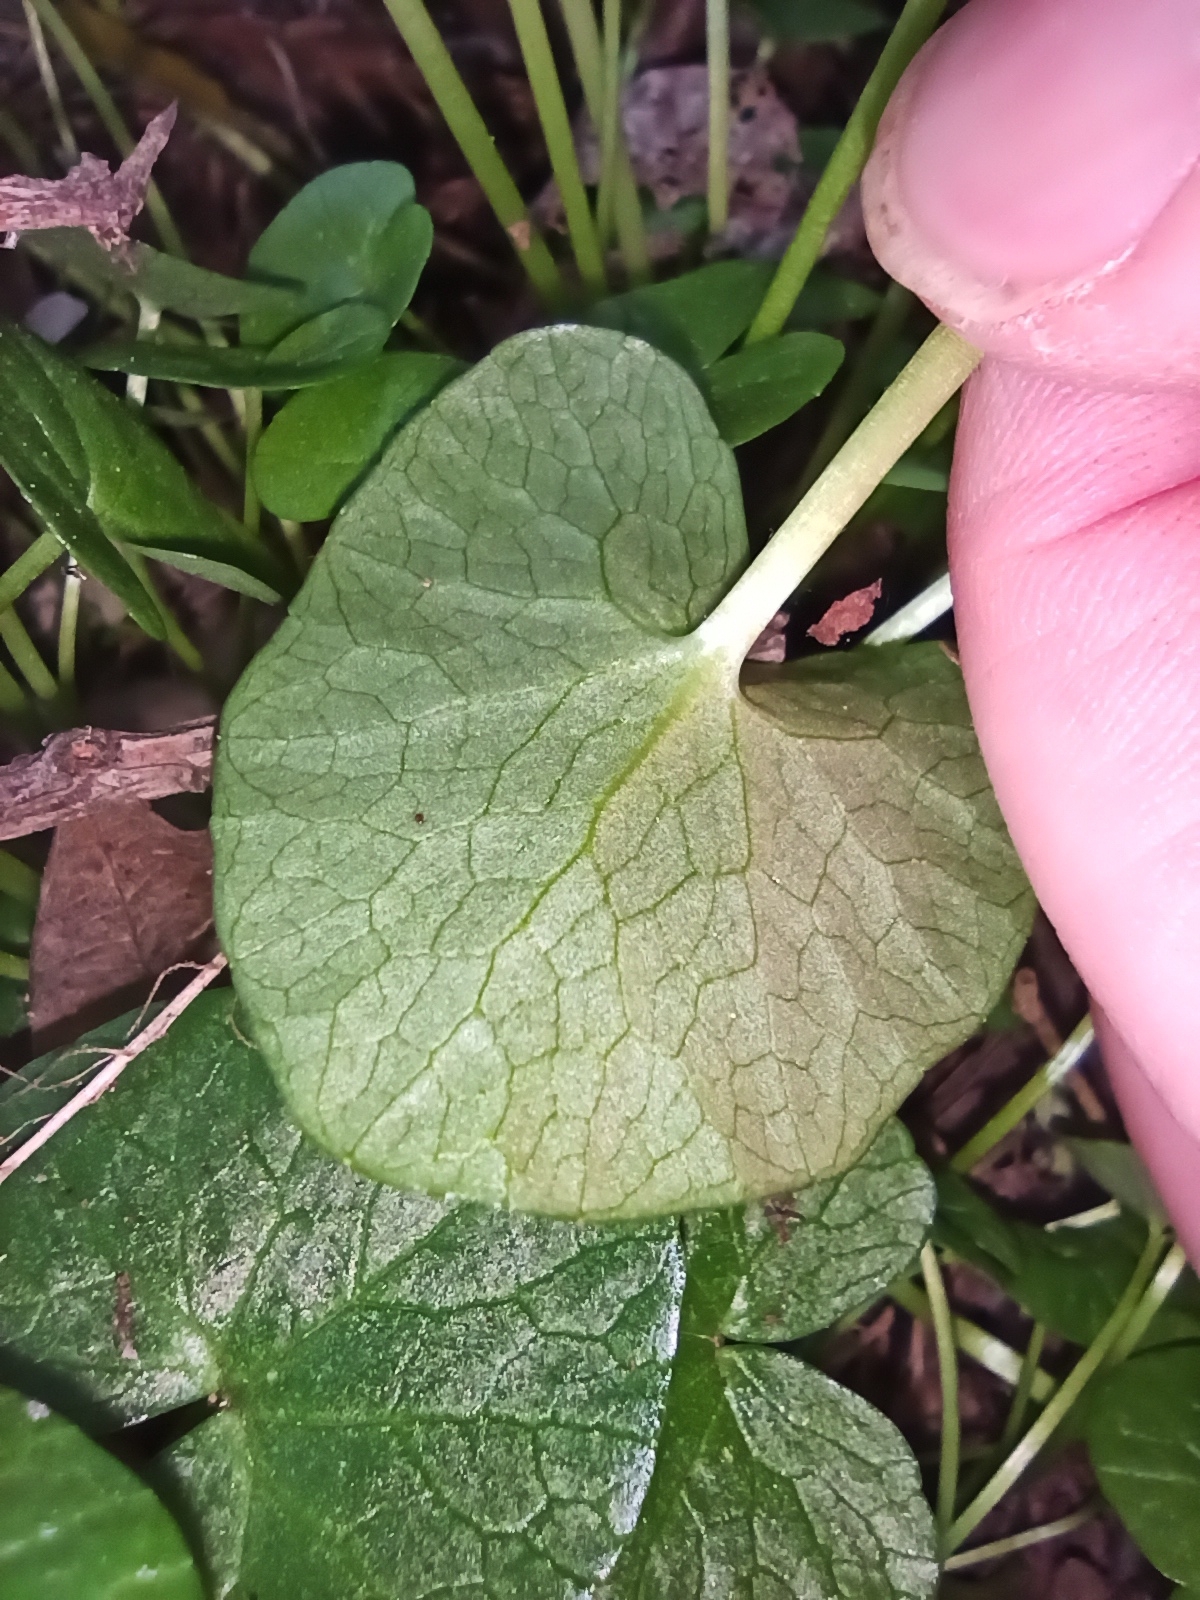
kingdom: Plantae
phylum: Tracheophyta
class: Magnoliopsida
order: Ranunculales
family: Ranunculaceae
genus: Ficaria
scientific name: Ficaria verna
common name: Lesser celandine
